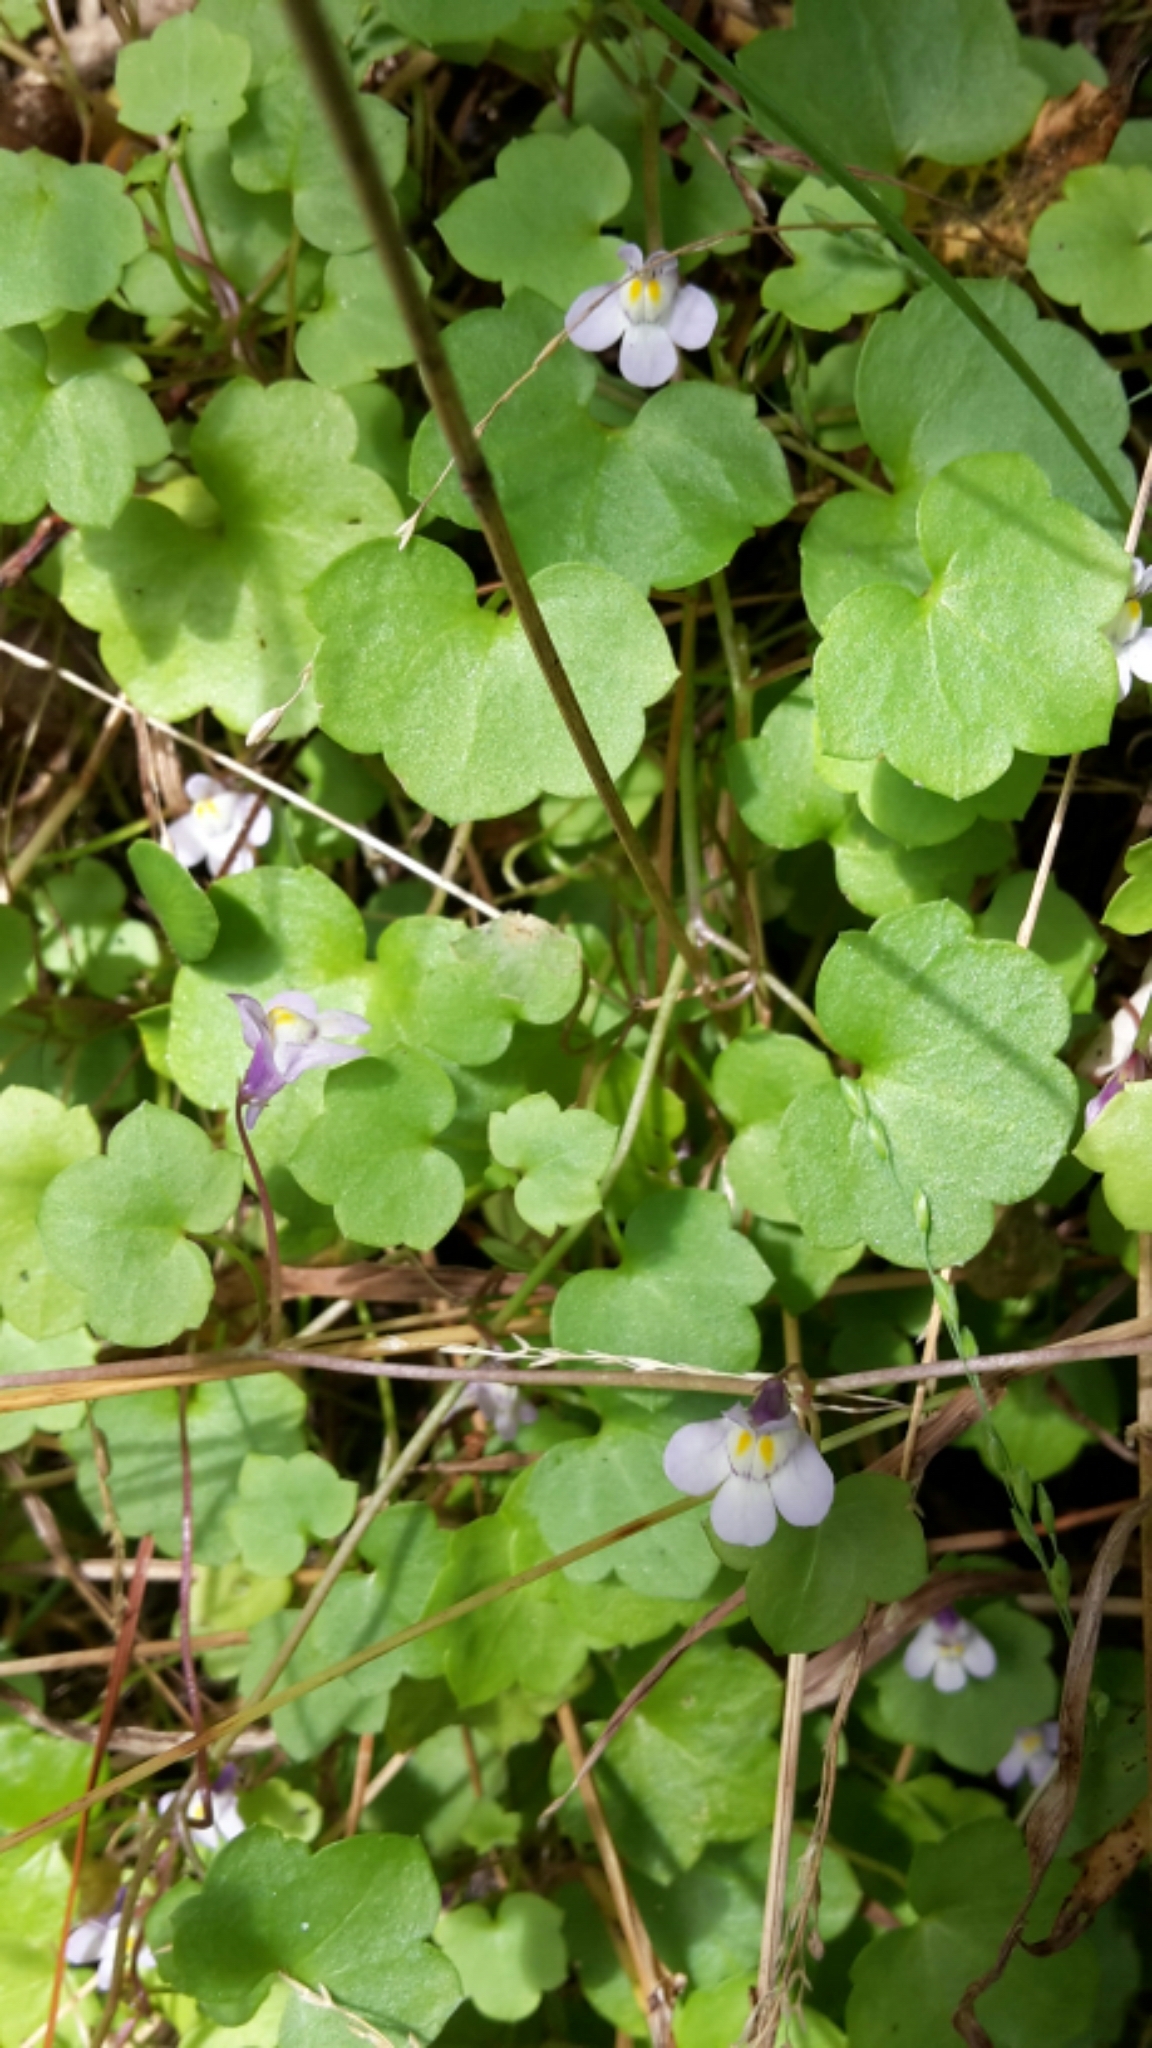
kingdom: Plantae
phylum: Tracheophyta
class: Magnoliopsida
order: Lamiales
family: Plantaginaceae
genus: Cymbalaria
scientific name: Cymbalaria muralis
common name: Ivy-leaved toadflax
